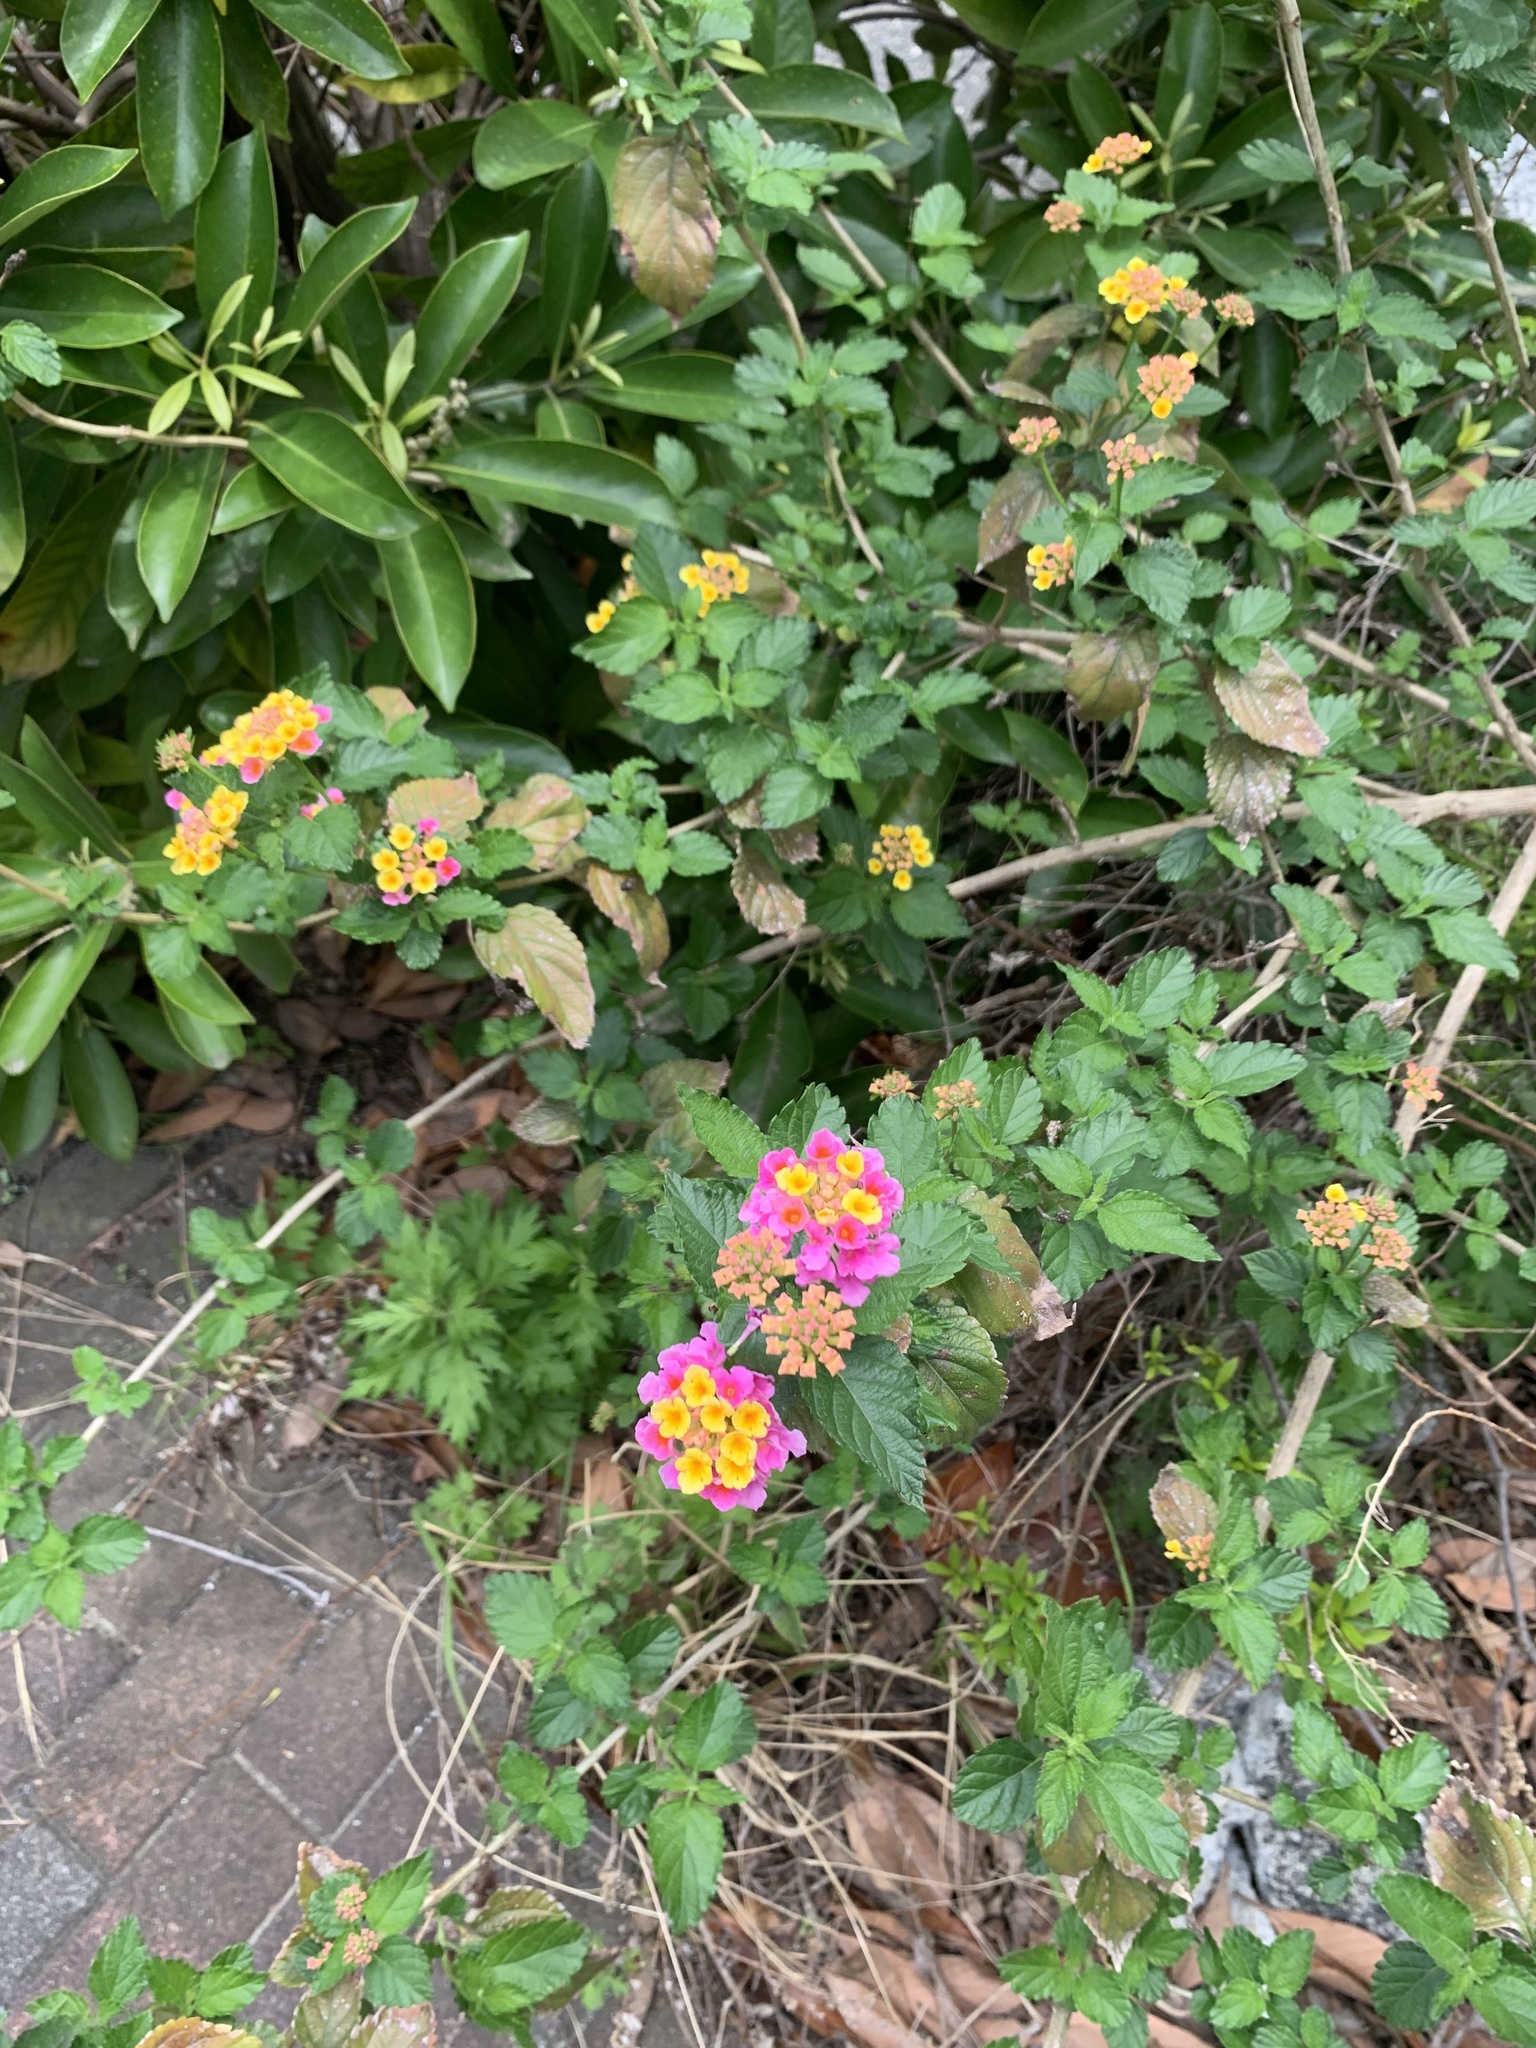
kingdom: Plantae
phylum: Tracheophyta
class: Magnoliopsida
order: Lamiales
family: Verbenaceae
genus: Lantana
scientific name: Lantana camara
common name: Lantana
